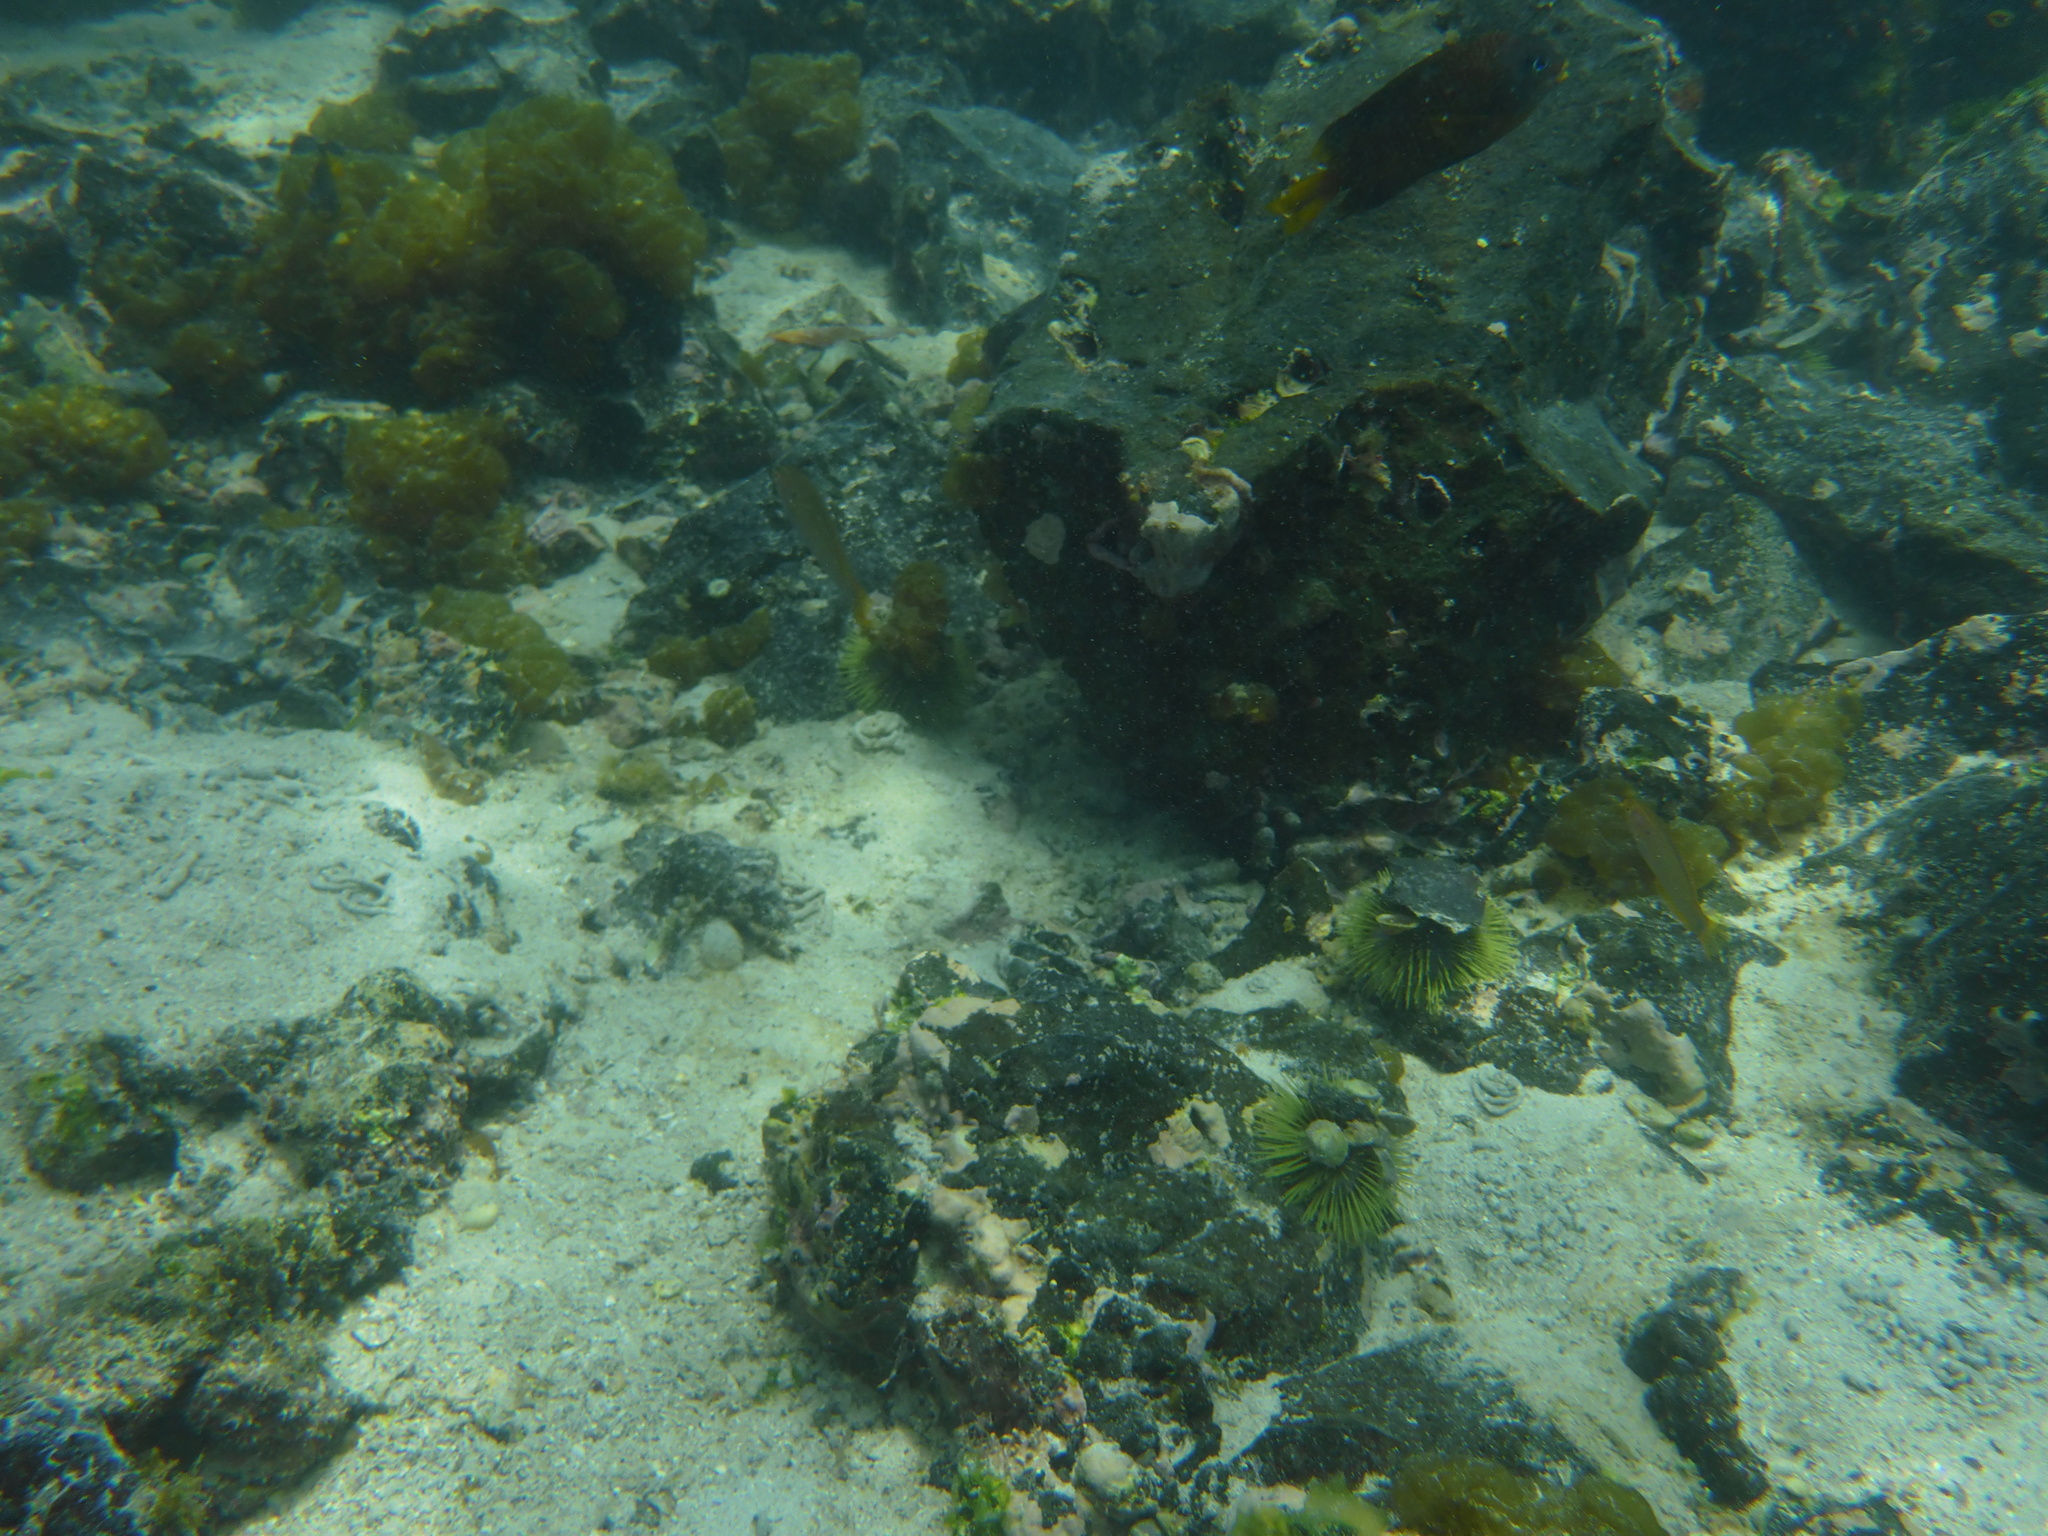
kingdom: Animalia
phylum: Chordata
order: Perciformes
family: Pomacentridae
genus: Stegastes
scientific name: Stegastes arcifrons
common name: Galapagos gregory
